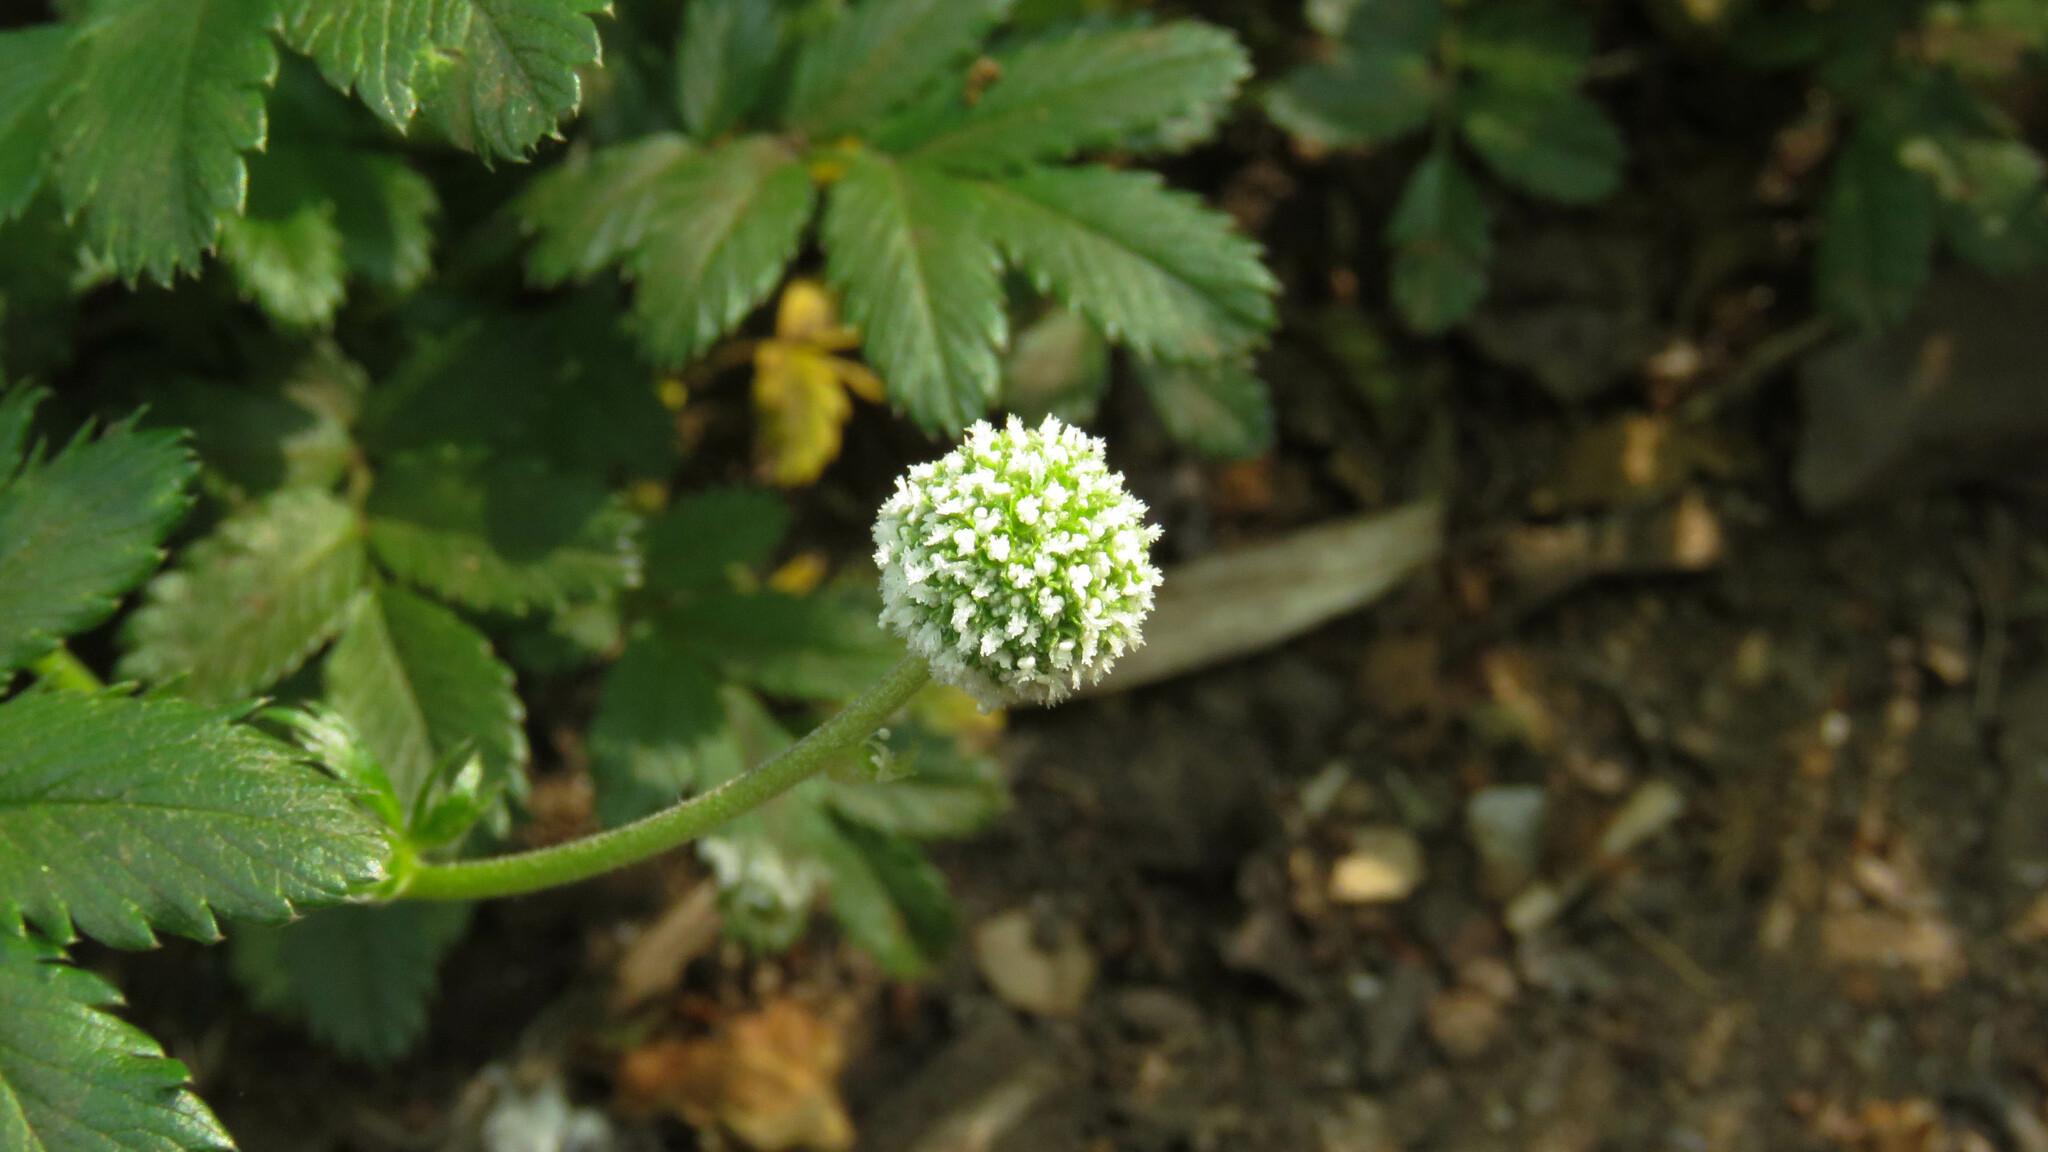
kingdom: Plantae
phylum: Tracheophyta
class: Magnoliopsida
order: Rosales
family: Rosaceae
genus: Acaena
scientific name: Acaena ovalifolia
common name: Two-spined acaena
